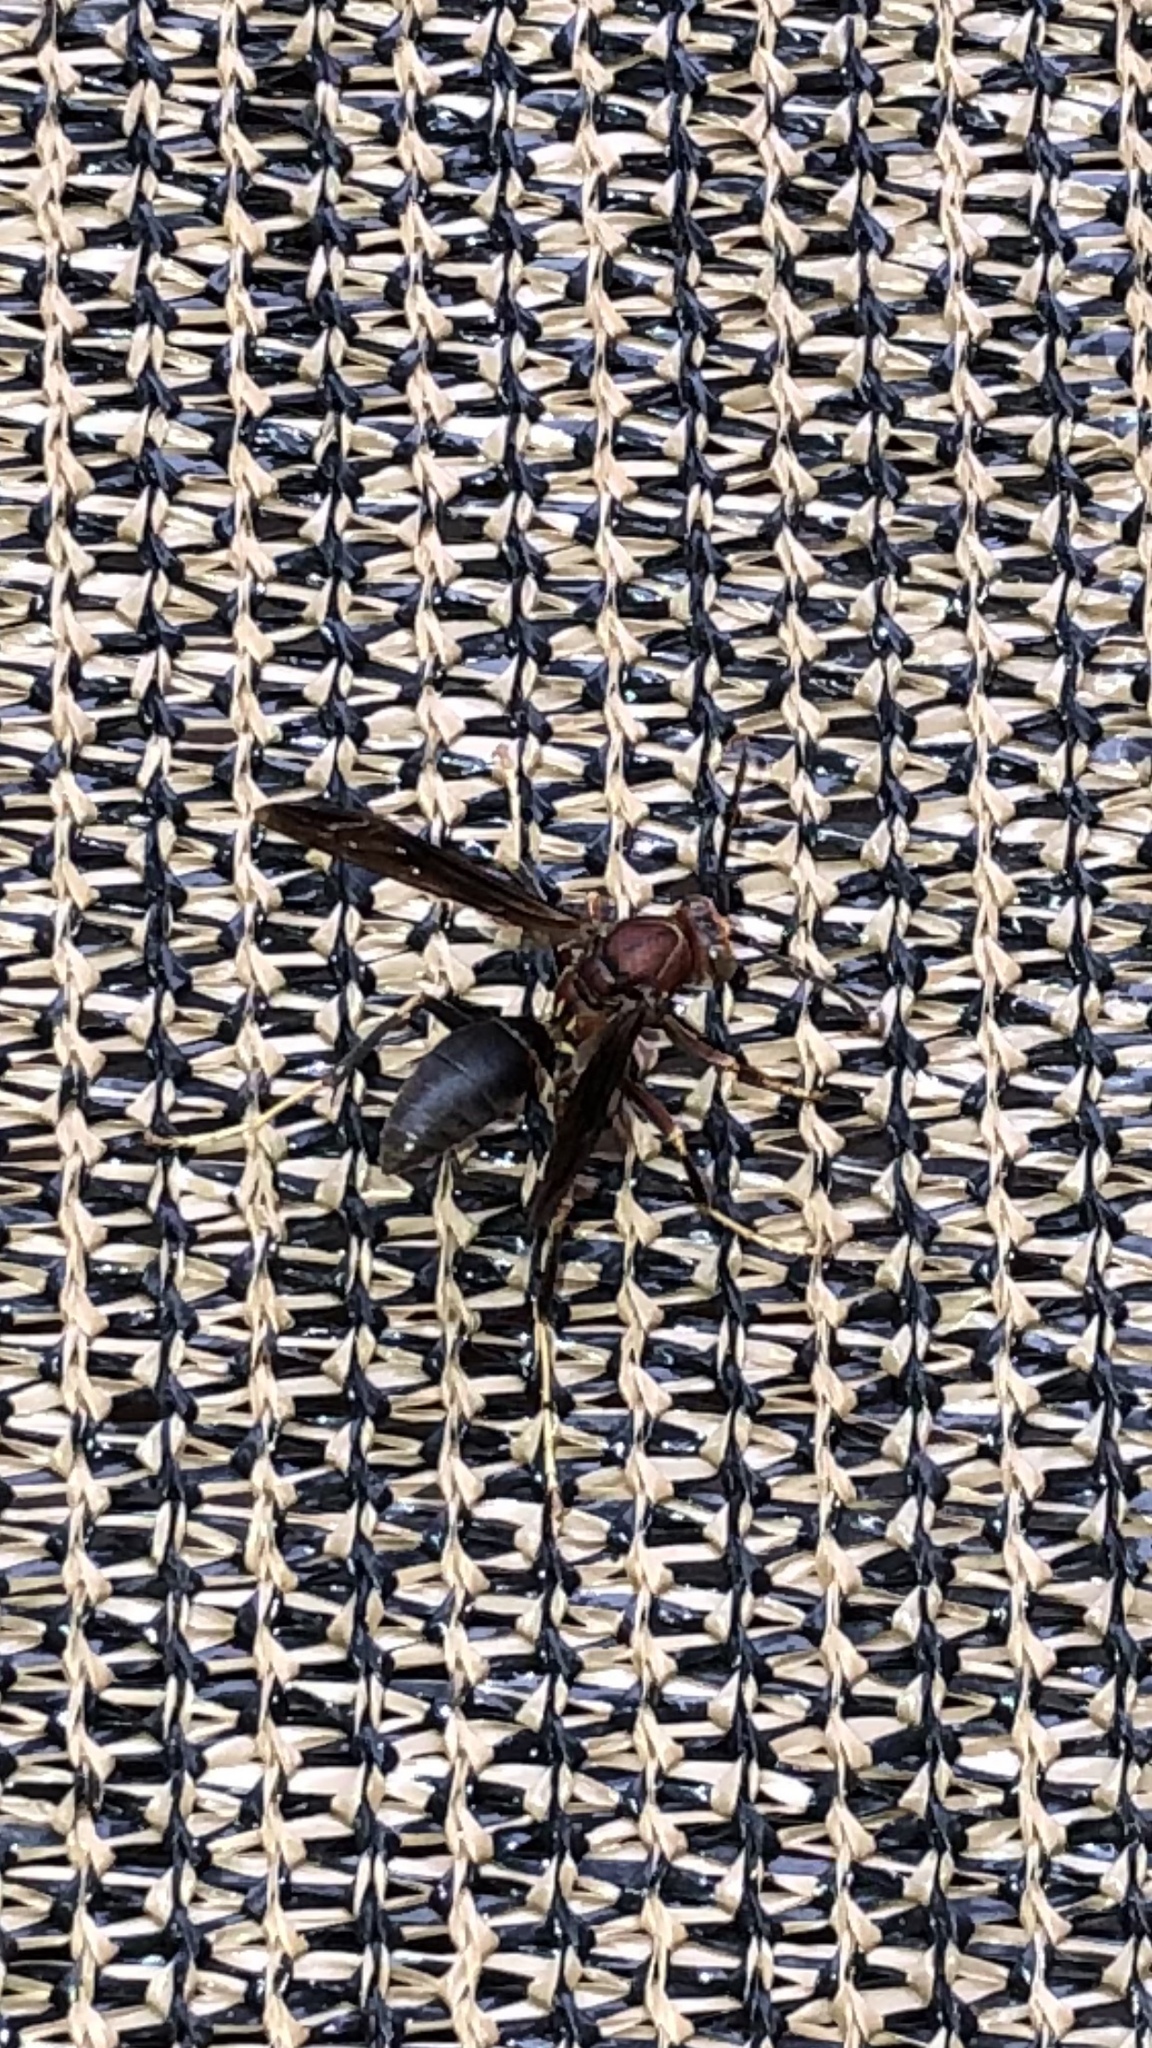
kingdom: Animalia
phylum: Arthropoda
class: Insecta
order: Hymenoptera
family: Eumenidae
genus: Polistes
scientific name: Polistes metricus
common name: Metric paper wasp
